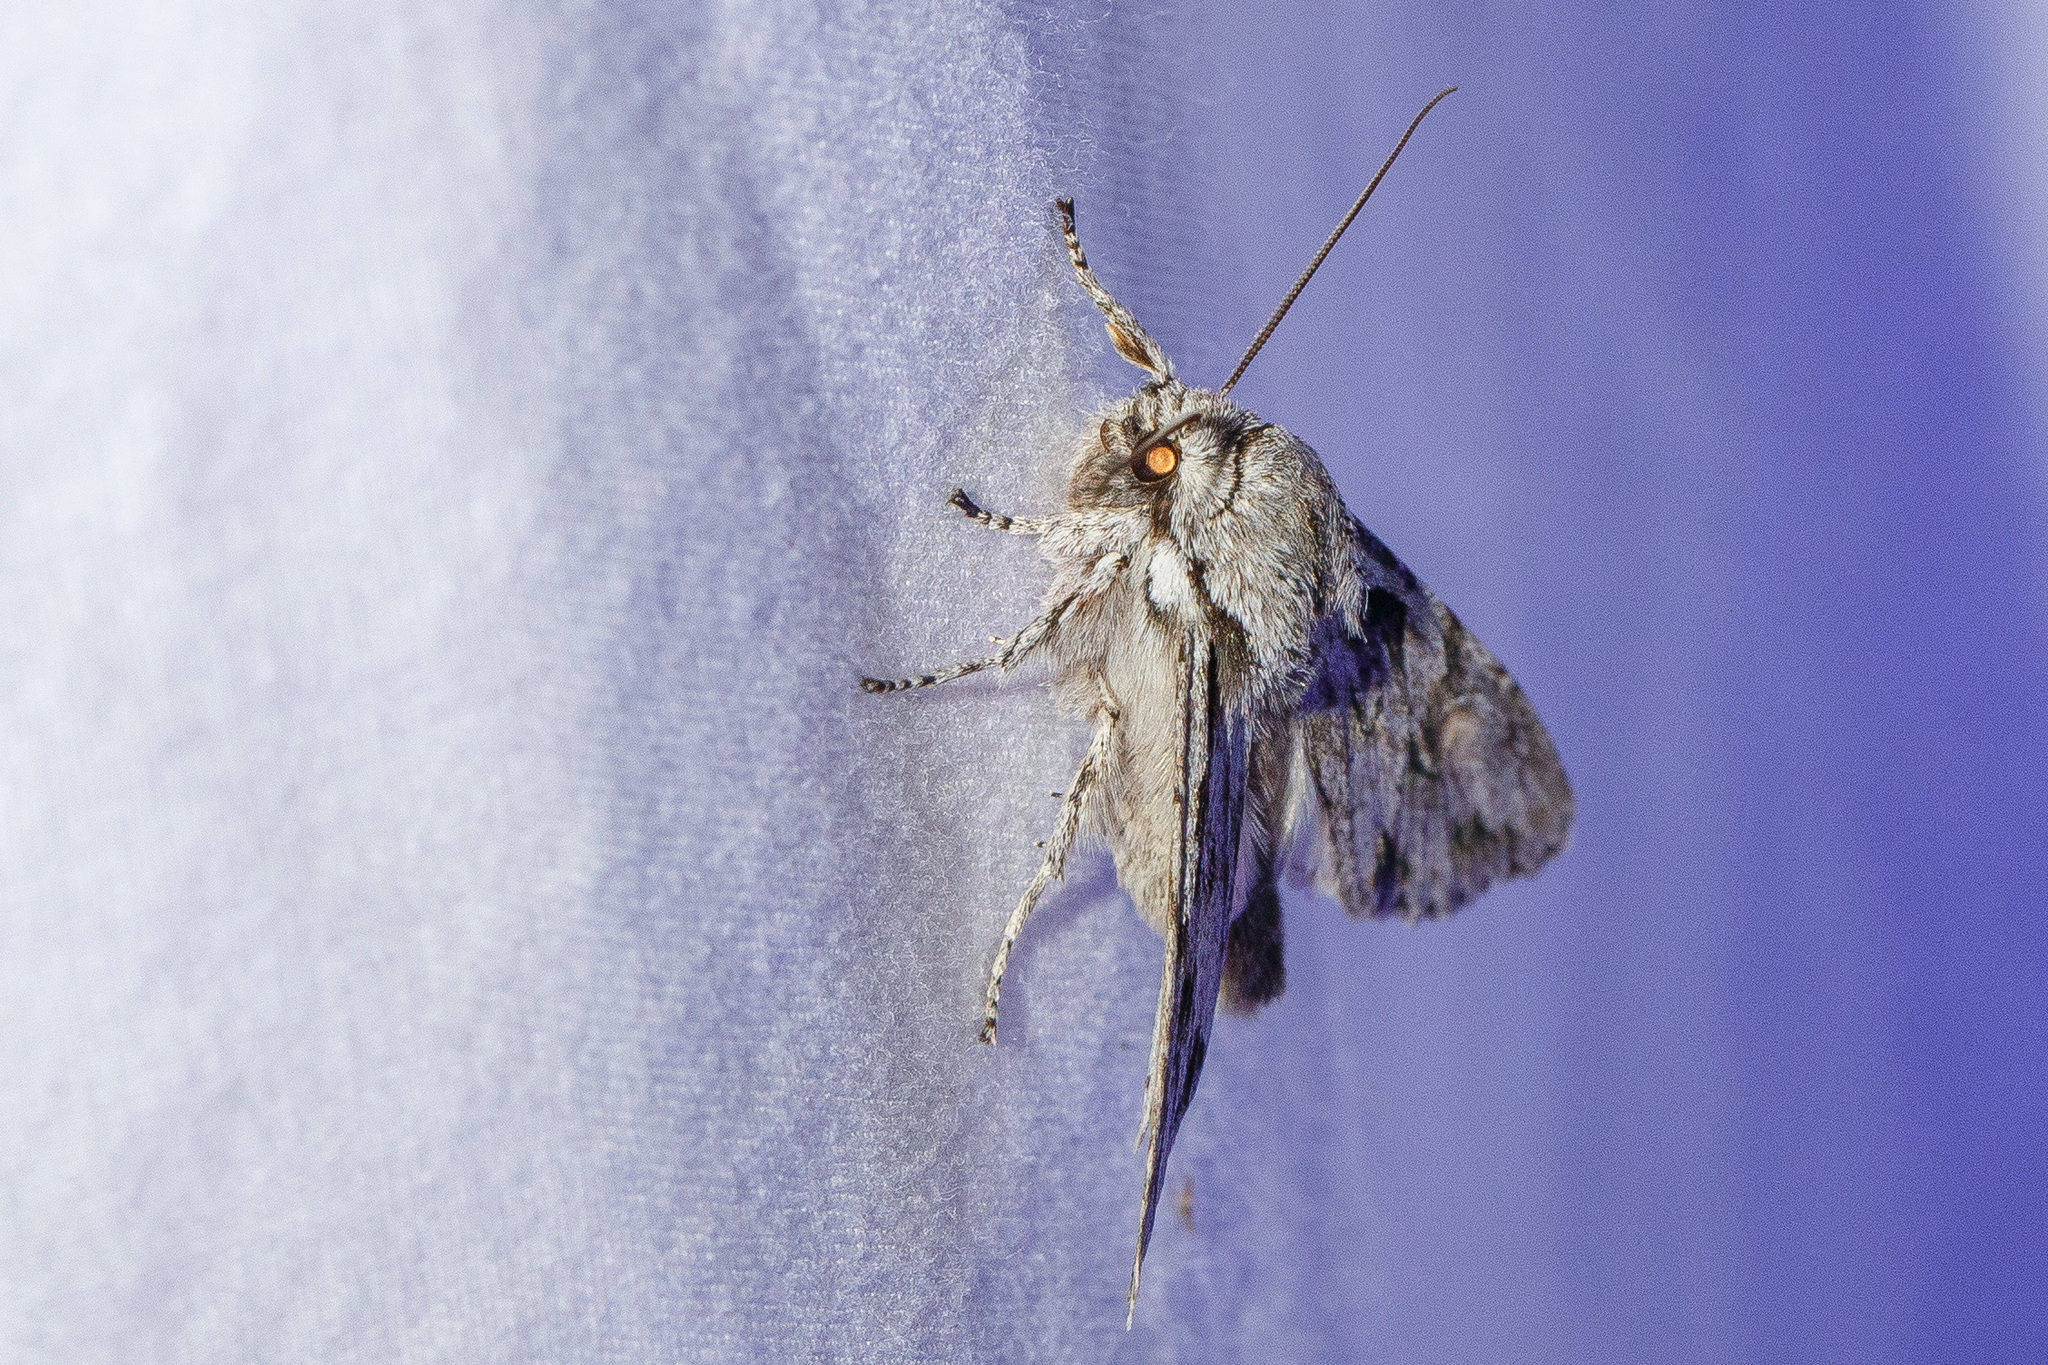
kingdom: Animalia
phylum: Arthropoda
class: Insecta
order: Lepidoptera
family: Noctuidae
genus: Egira
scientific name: Egira crucialis
